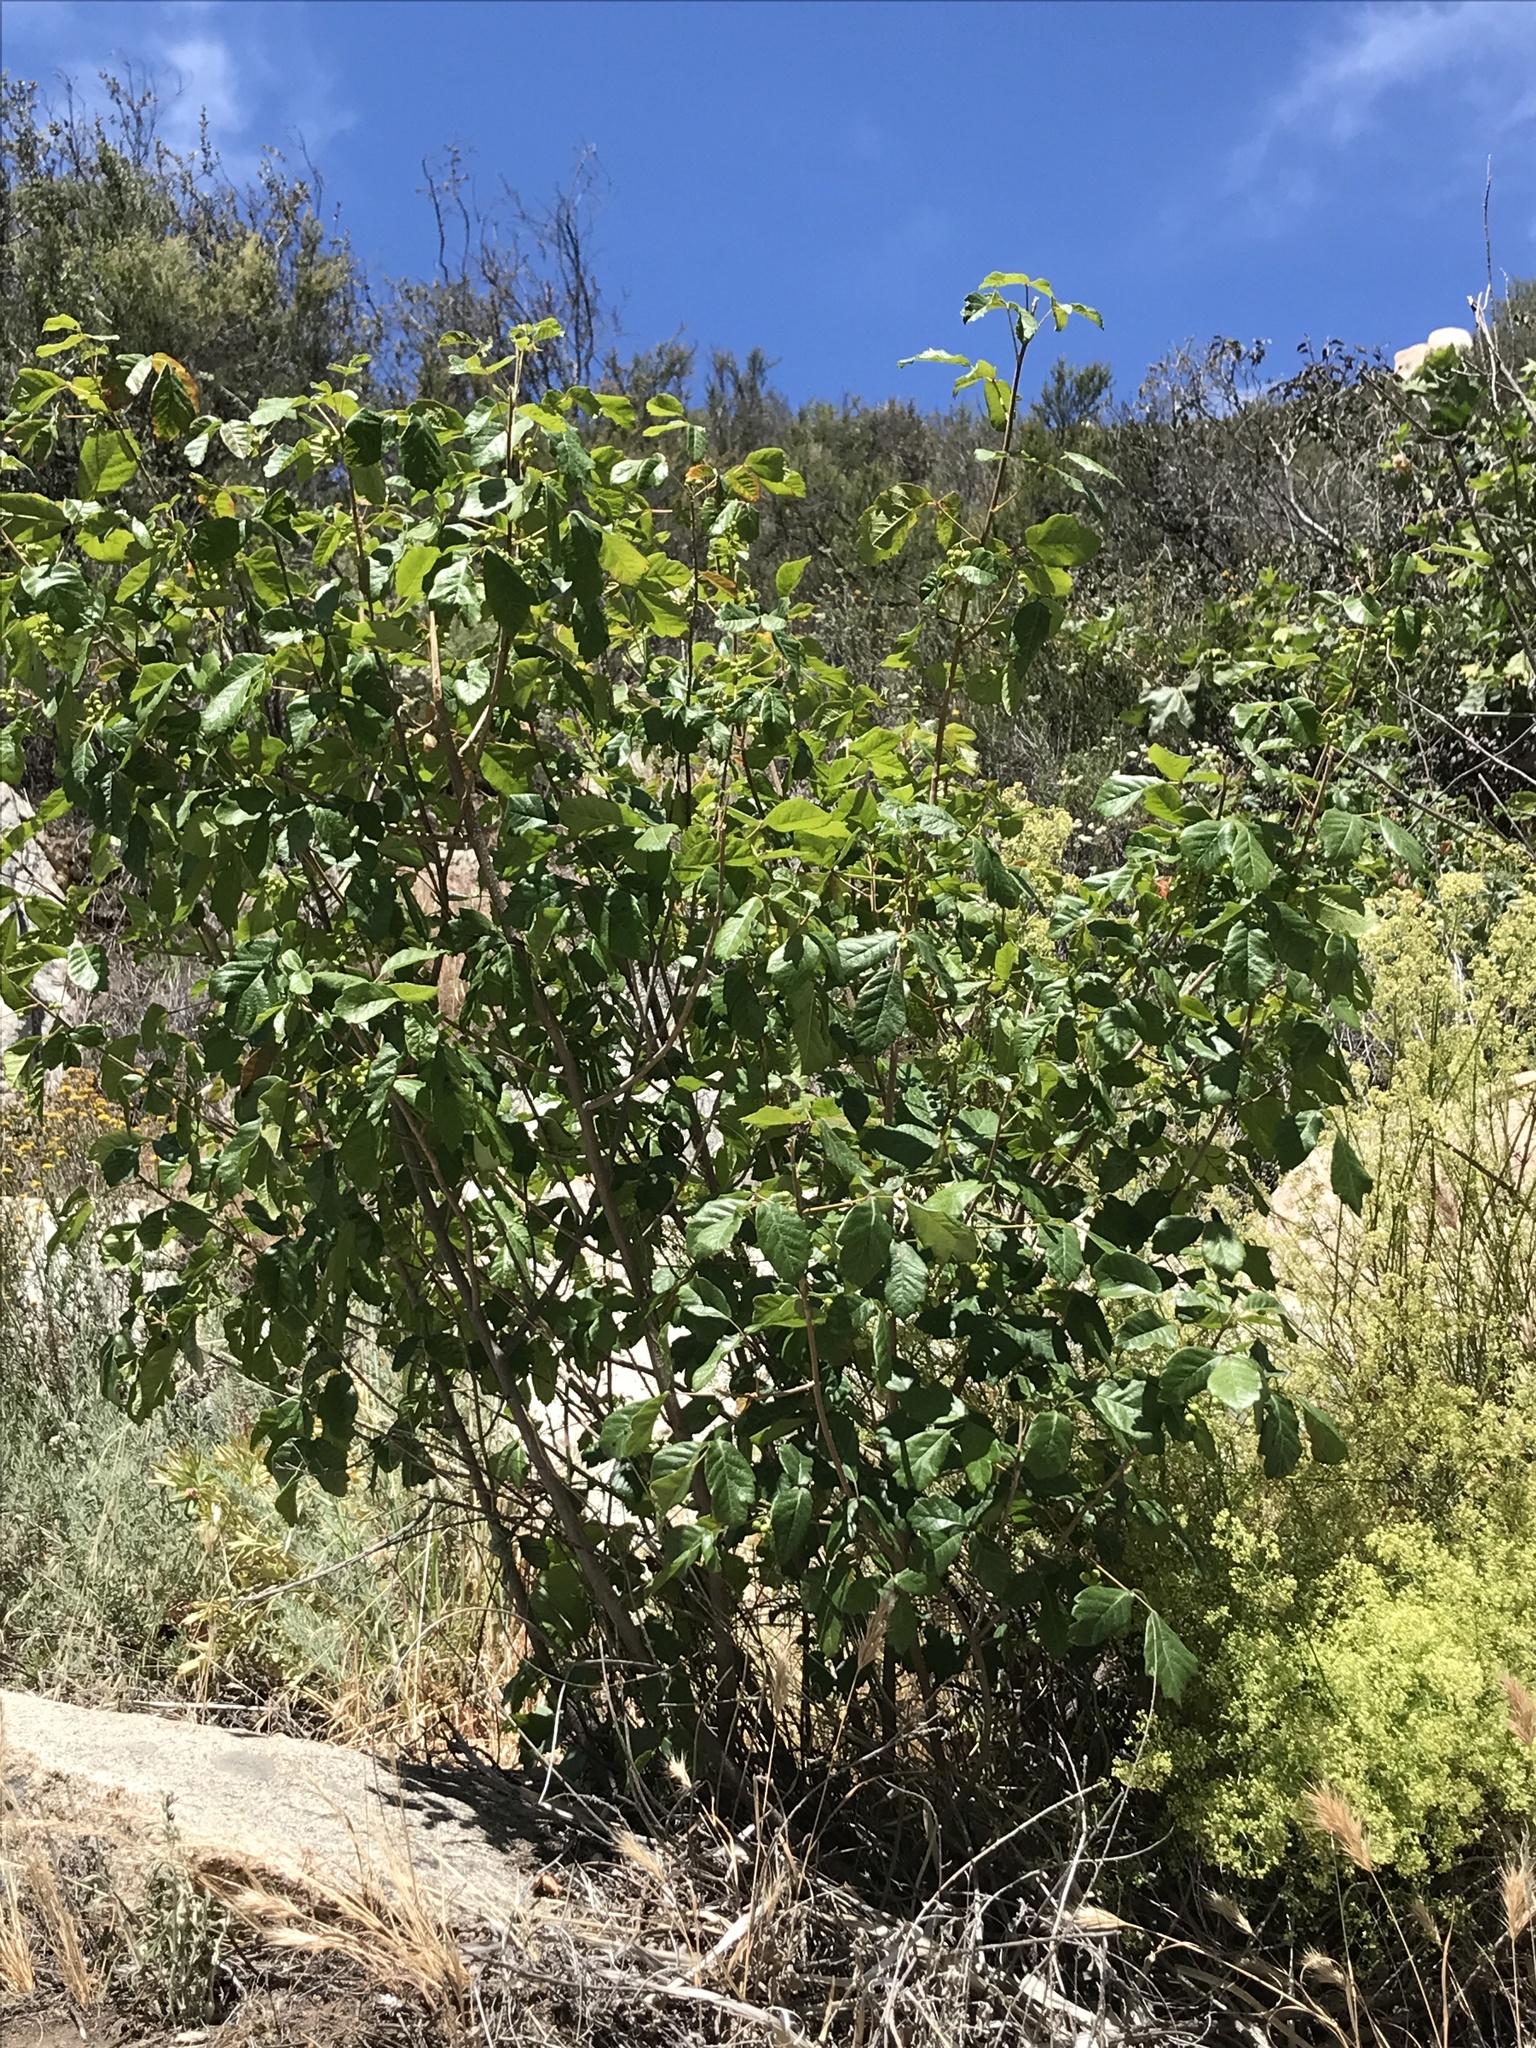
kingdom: Plantae
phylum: Tracheophyta
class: Magnoliopsida
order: Sapindales
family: Anacardiaceae
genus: Toxicodendron
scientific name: Toxicodendron diversilobum
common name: Pacific poison-oak
